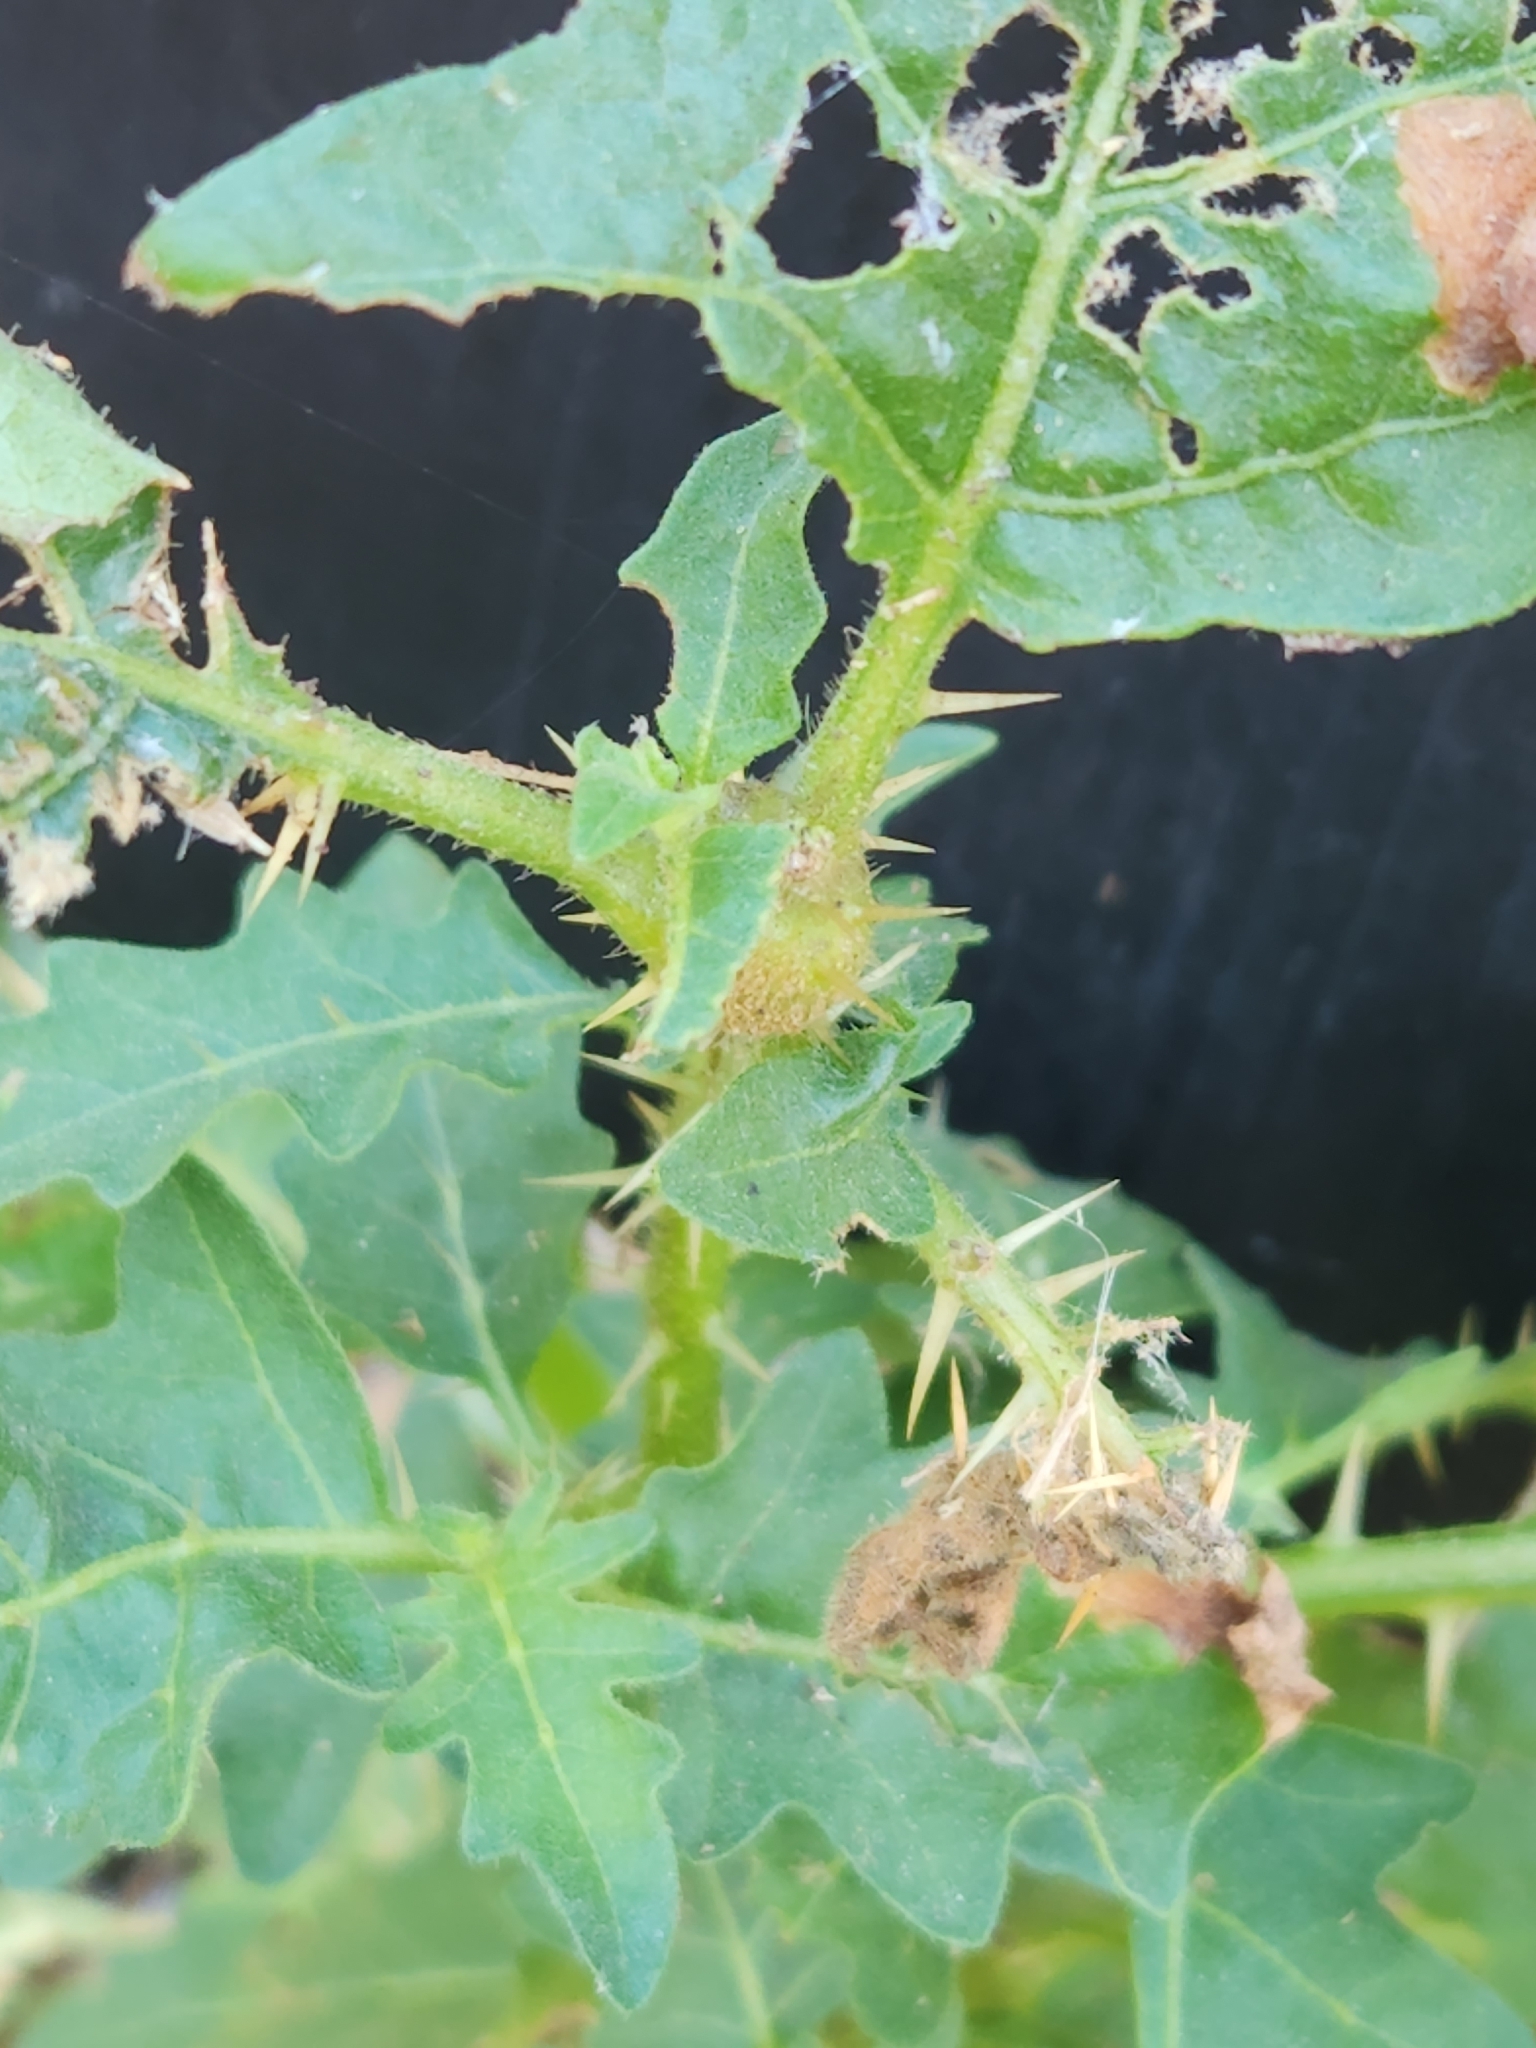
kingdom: Plantae
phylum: Tracheophyta
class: Magnoliopsida
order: Solanales
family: Solanaceae
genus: Solanum
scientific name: Solanum carolinense
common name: Horse-nettle
